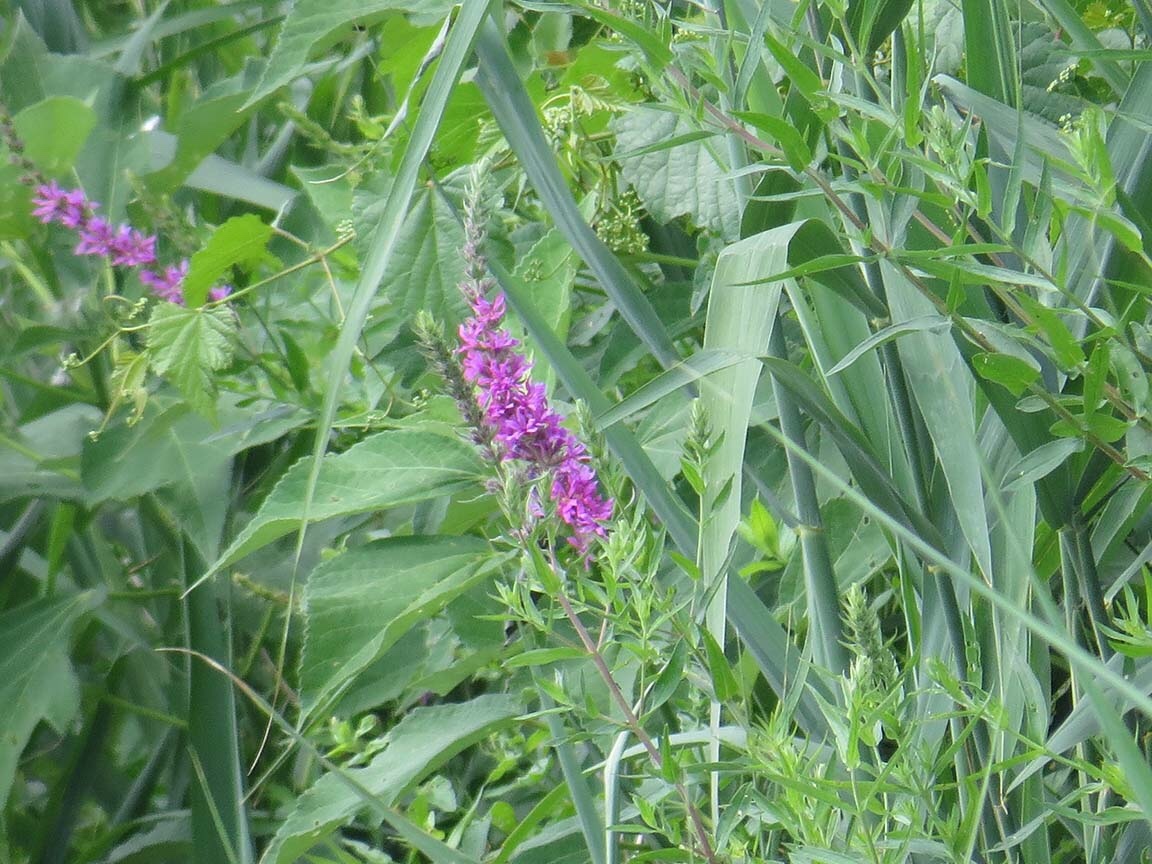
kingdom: Plantae
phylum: Tracheophyta
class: Magnoliopsida
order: Myrtales
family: Lythraceae
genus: Lythrum
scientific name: Lythrum salicaria
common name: Purple loosestrife
